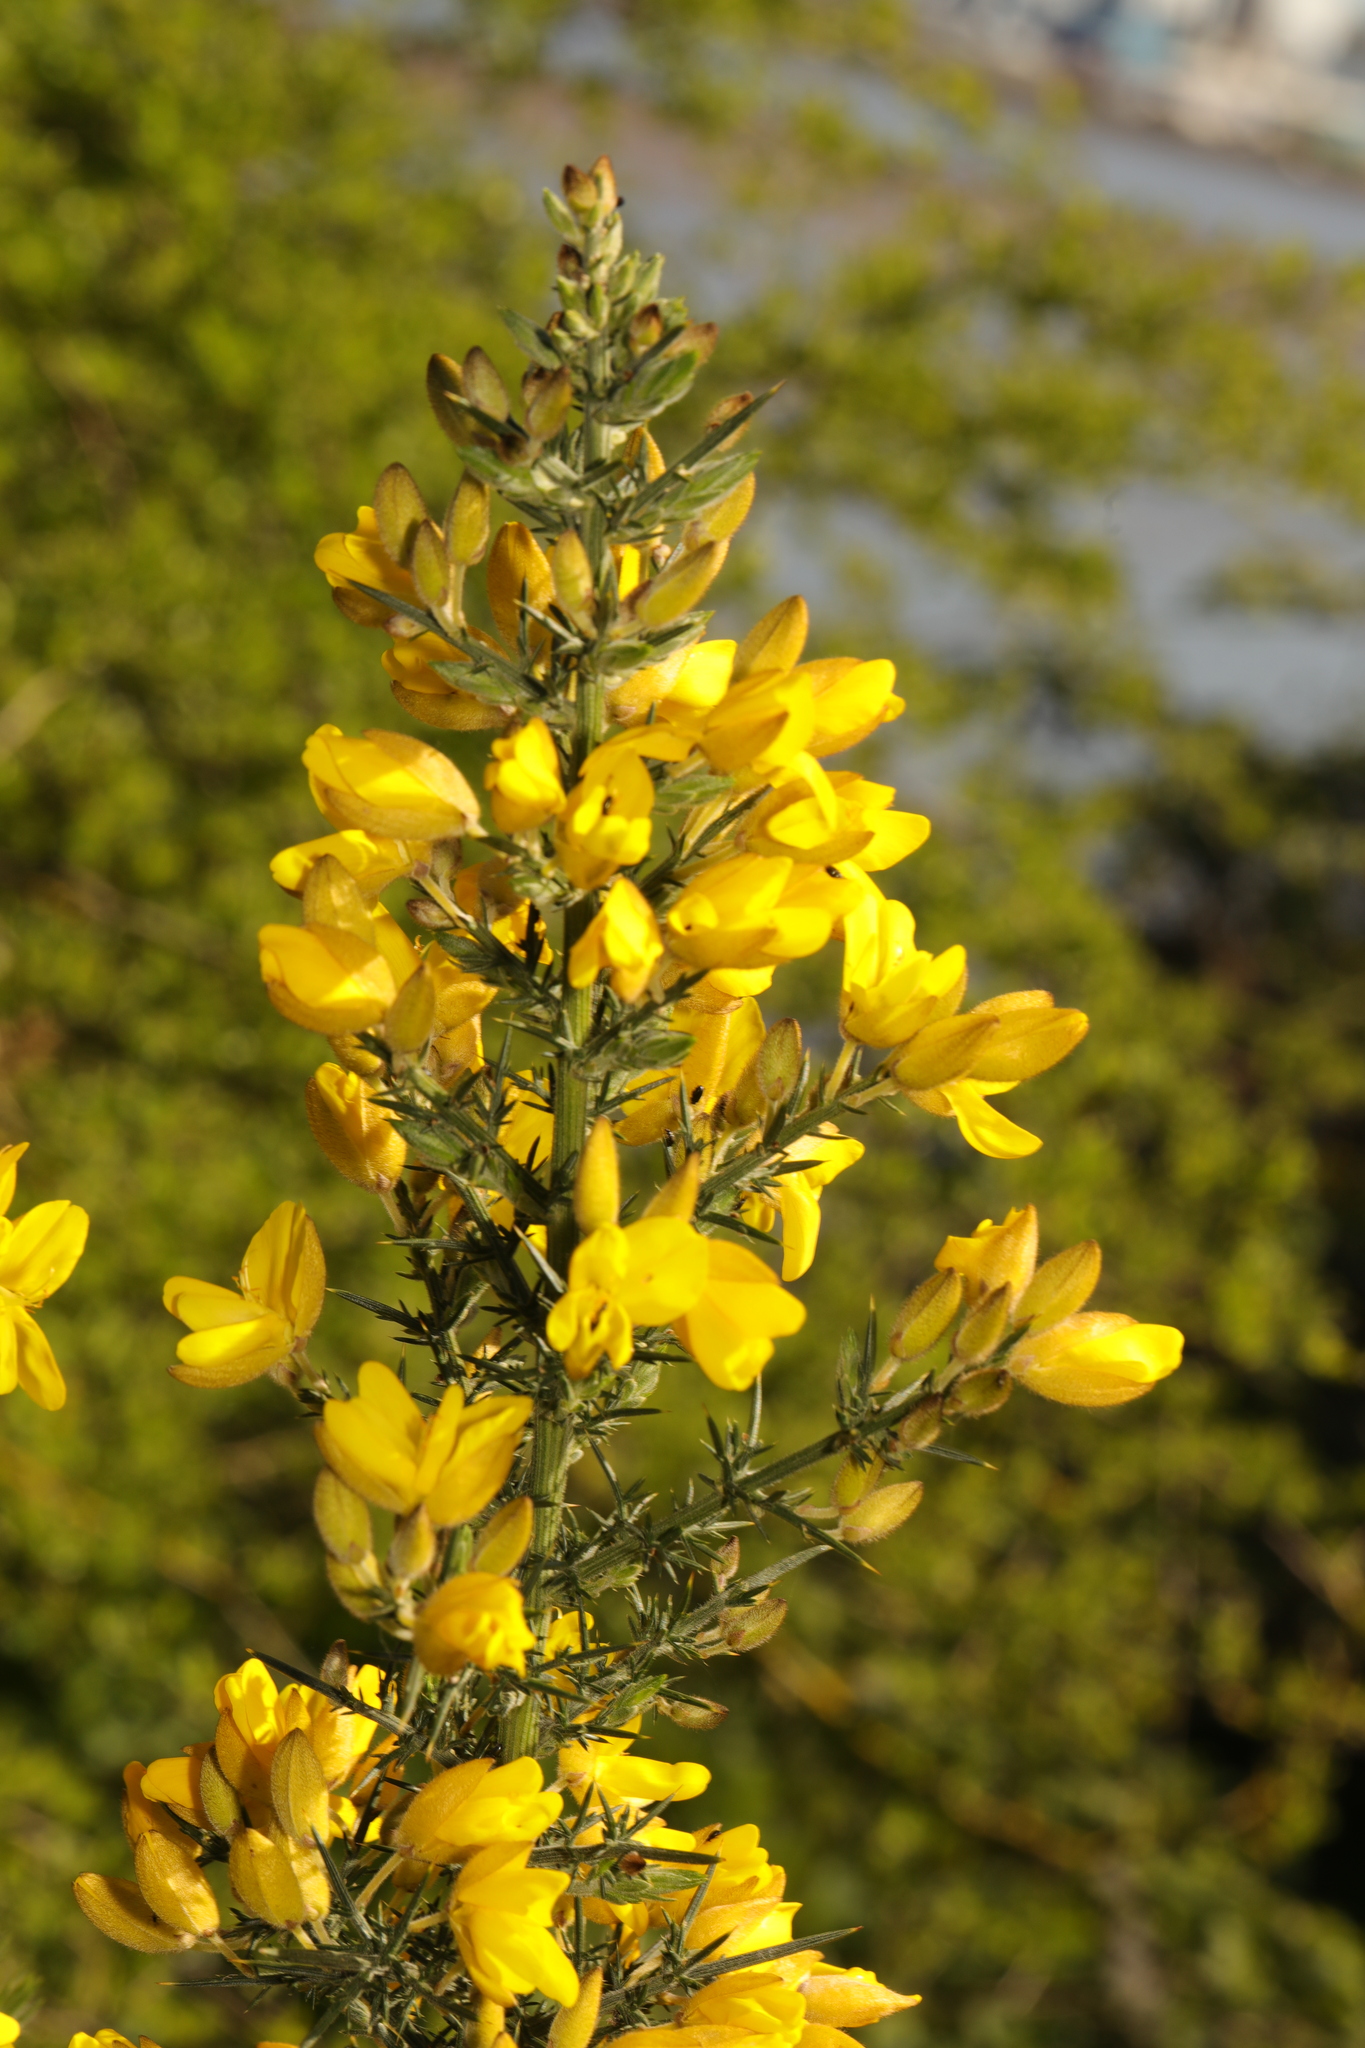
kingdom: Plantae
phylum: Tracheophyta
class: Magnoliopsida
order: Fabales
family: Fabaceae
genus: Ulex
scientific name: Ulex europaeus
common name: Common gorse
